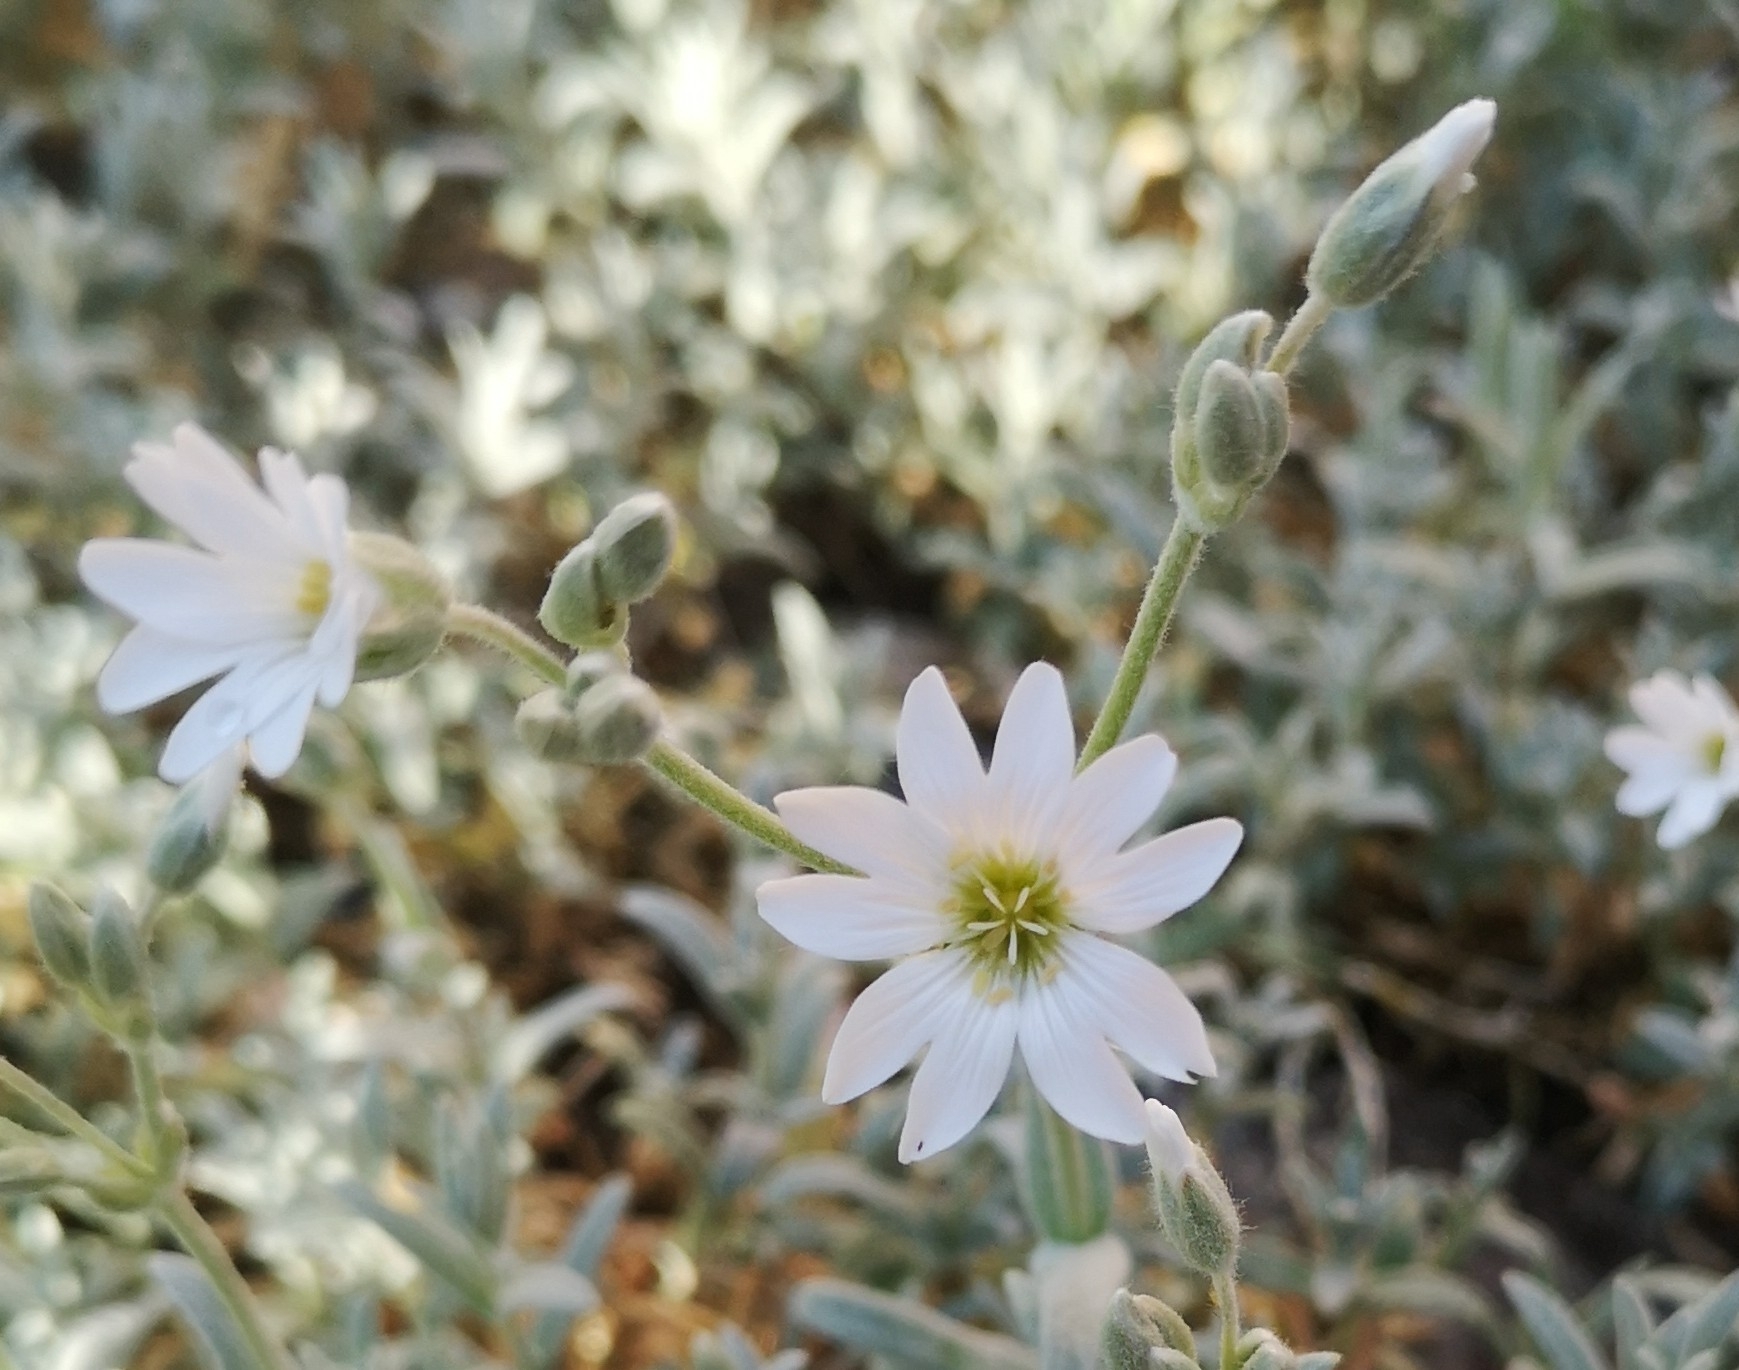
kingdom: Plantae
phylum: Tracheophyta
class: Magnoliopsida
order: Caryophyllales
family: Caryophyllaceae
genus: Cerastium
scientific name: Cerastium tomentosum
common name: Snow-in-summer
